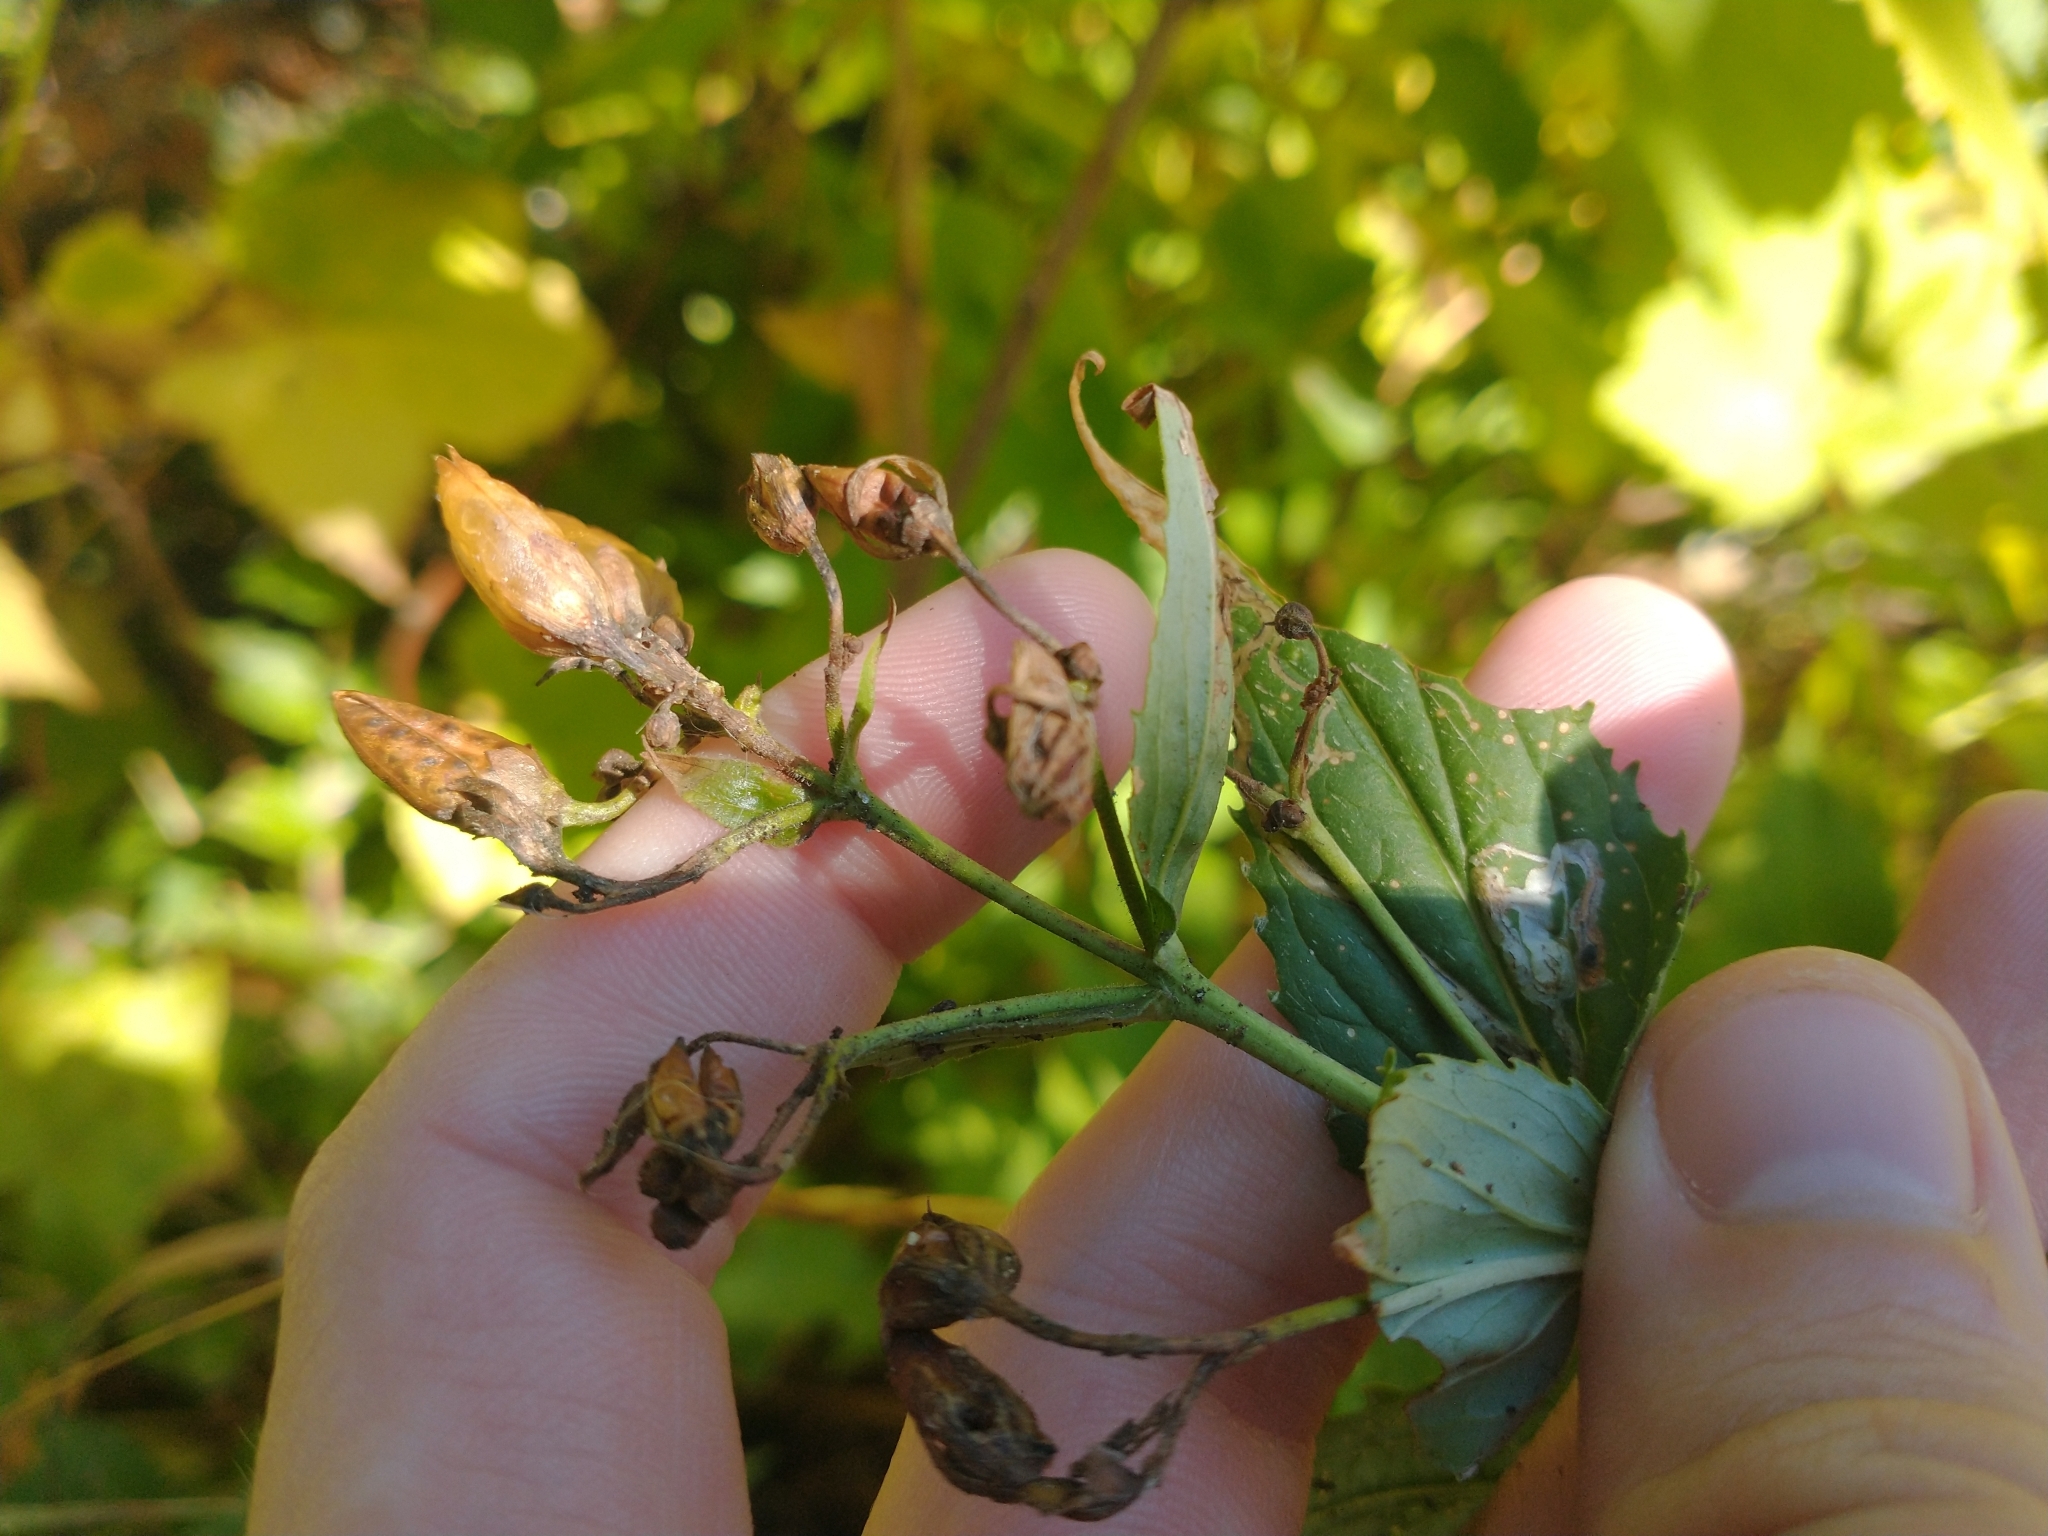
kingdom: Plantae
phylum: Tracheophyta
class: Magnoliopsida
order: Lamiales
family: Plantaginaceae
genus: Nothochelone
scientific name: Nothochelone nemorosa
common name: Woodland beardtongue
